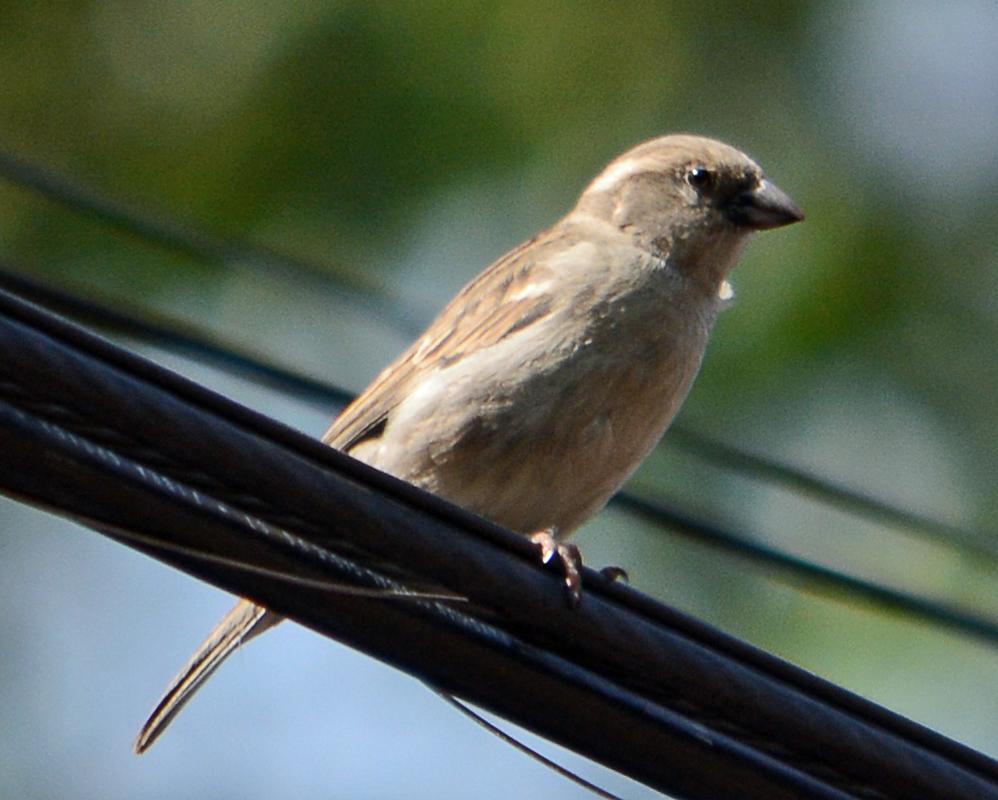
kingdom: Animalia
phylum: Chordata
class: Aves
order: Passeriformes
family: Passeridae
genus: Passer
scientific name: Passer domesticus
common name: House sparrow
